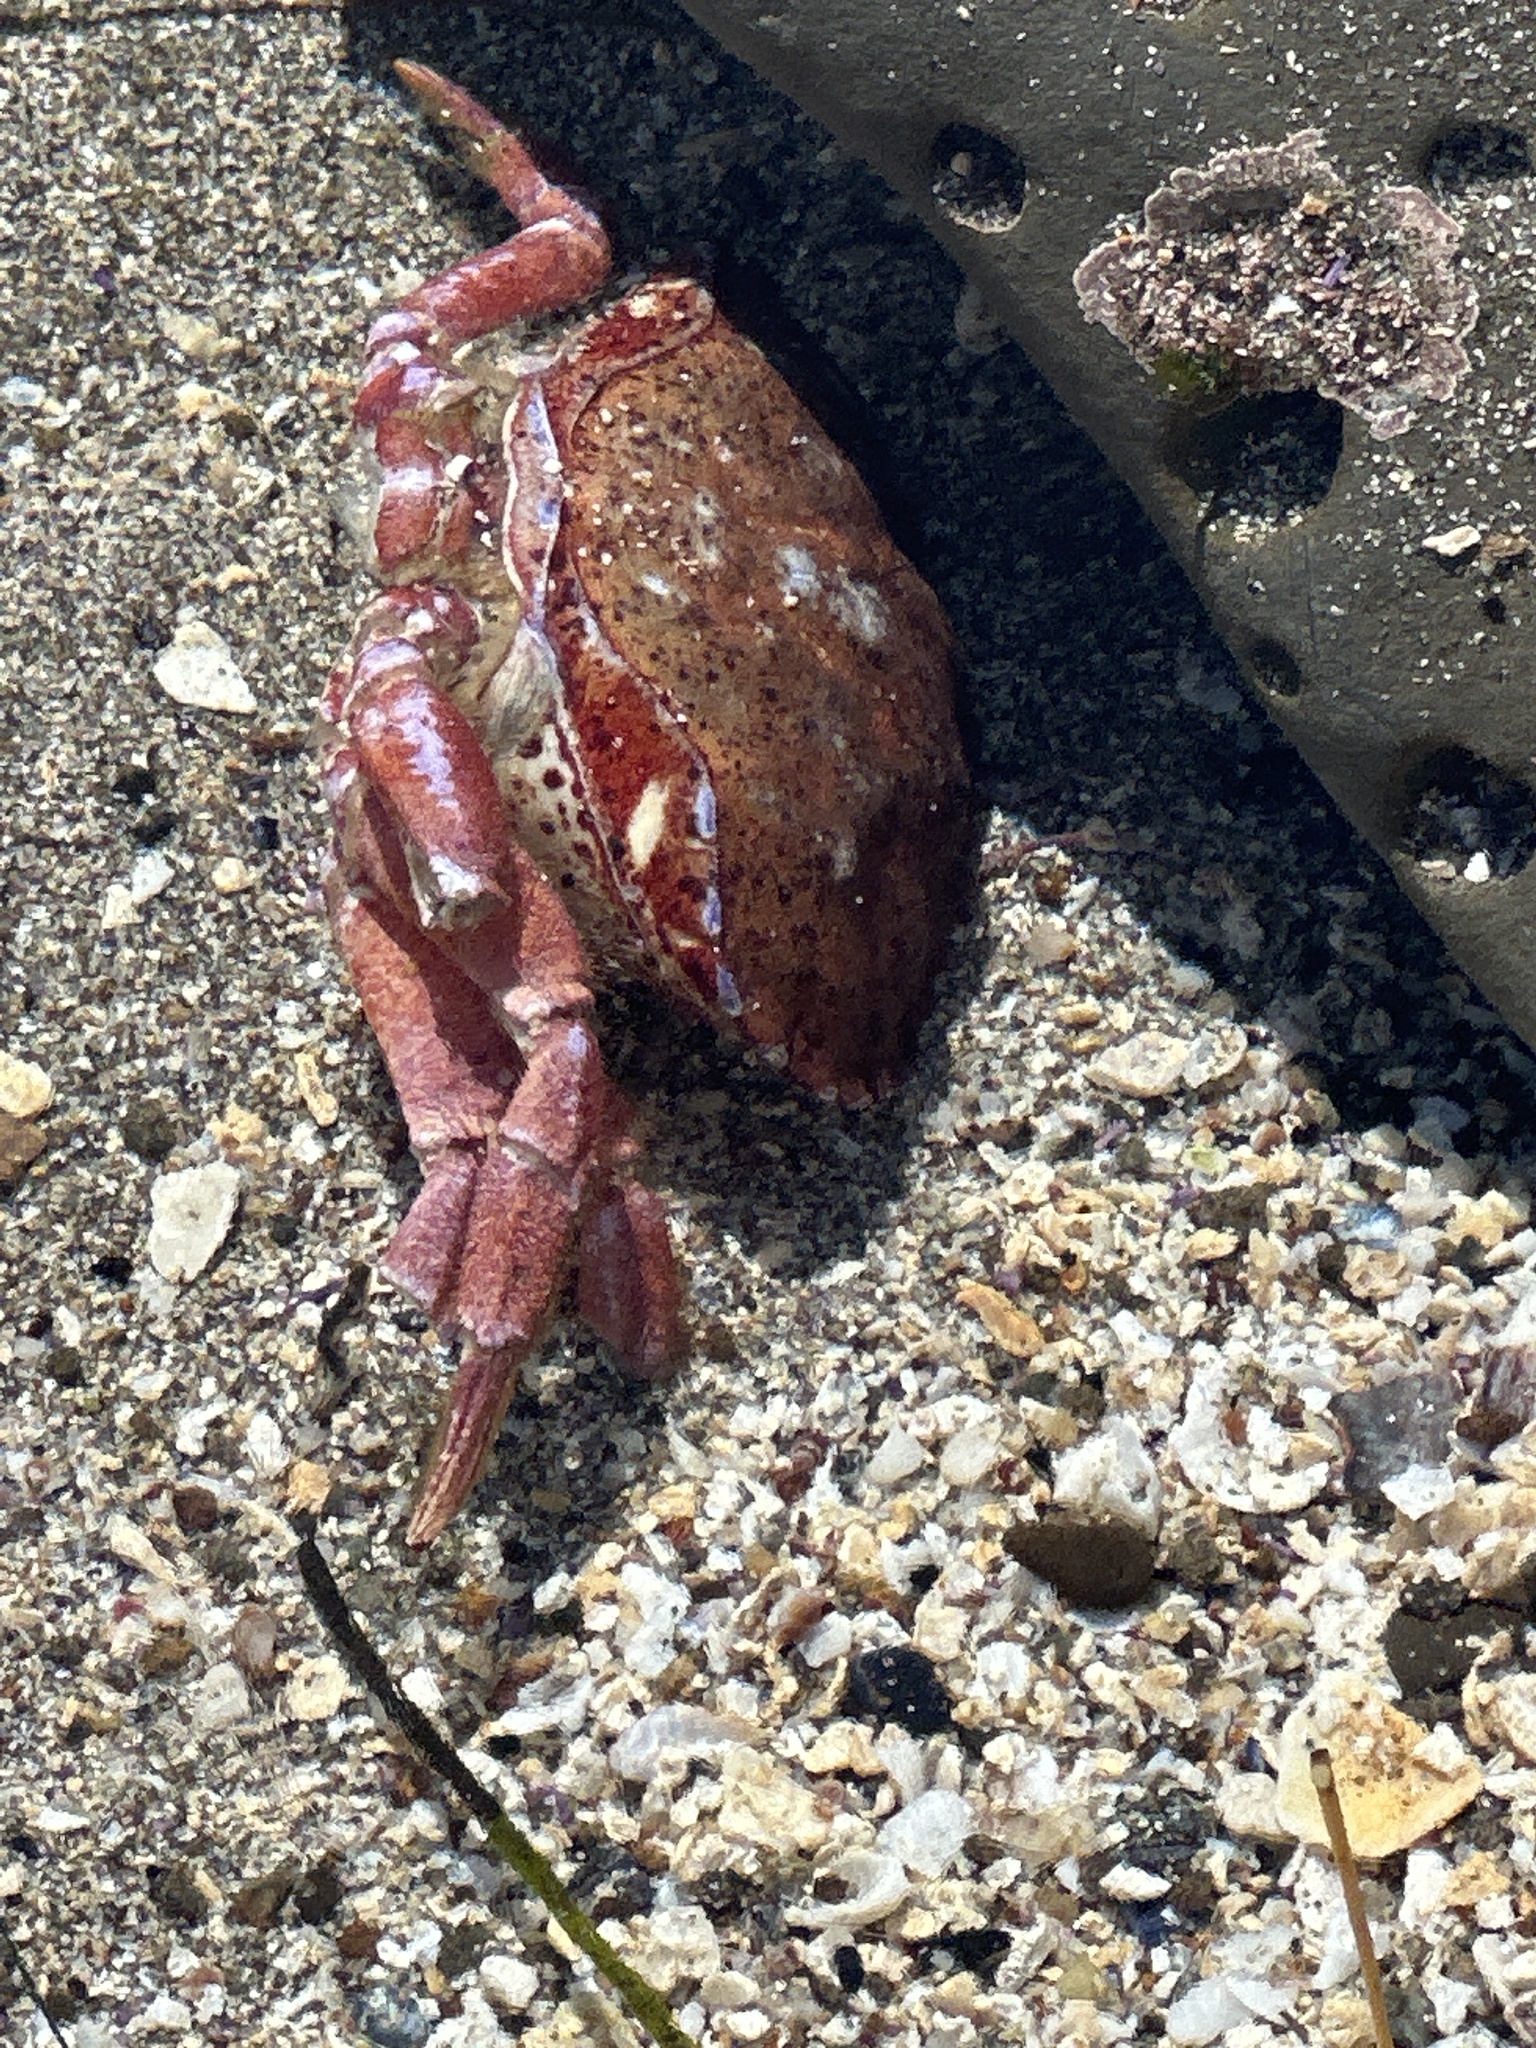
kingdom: Animalia
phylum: Arthropoda
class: Malacostraca
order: Decapoda
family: Cancridae
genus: Romaleon
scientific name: Romaleon antennarium
